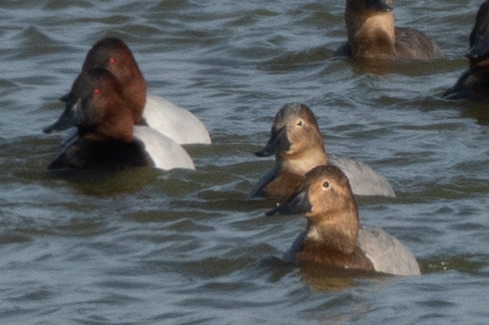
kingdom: Animalia
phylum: Chordata
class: Aves
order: Anseriformes
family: Anatidae
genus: Aythya
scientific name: Aythya valisineria
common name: Canvasback
